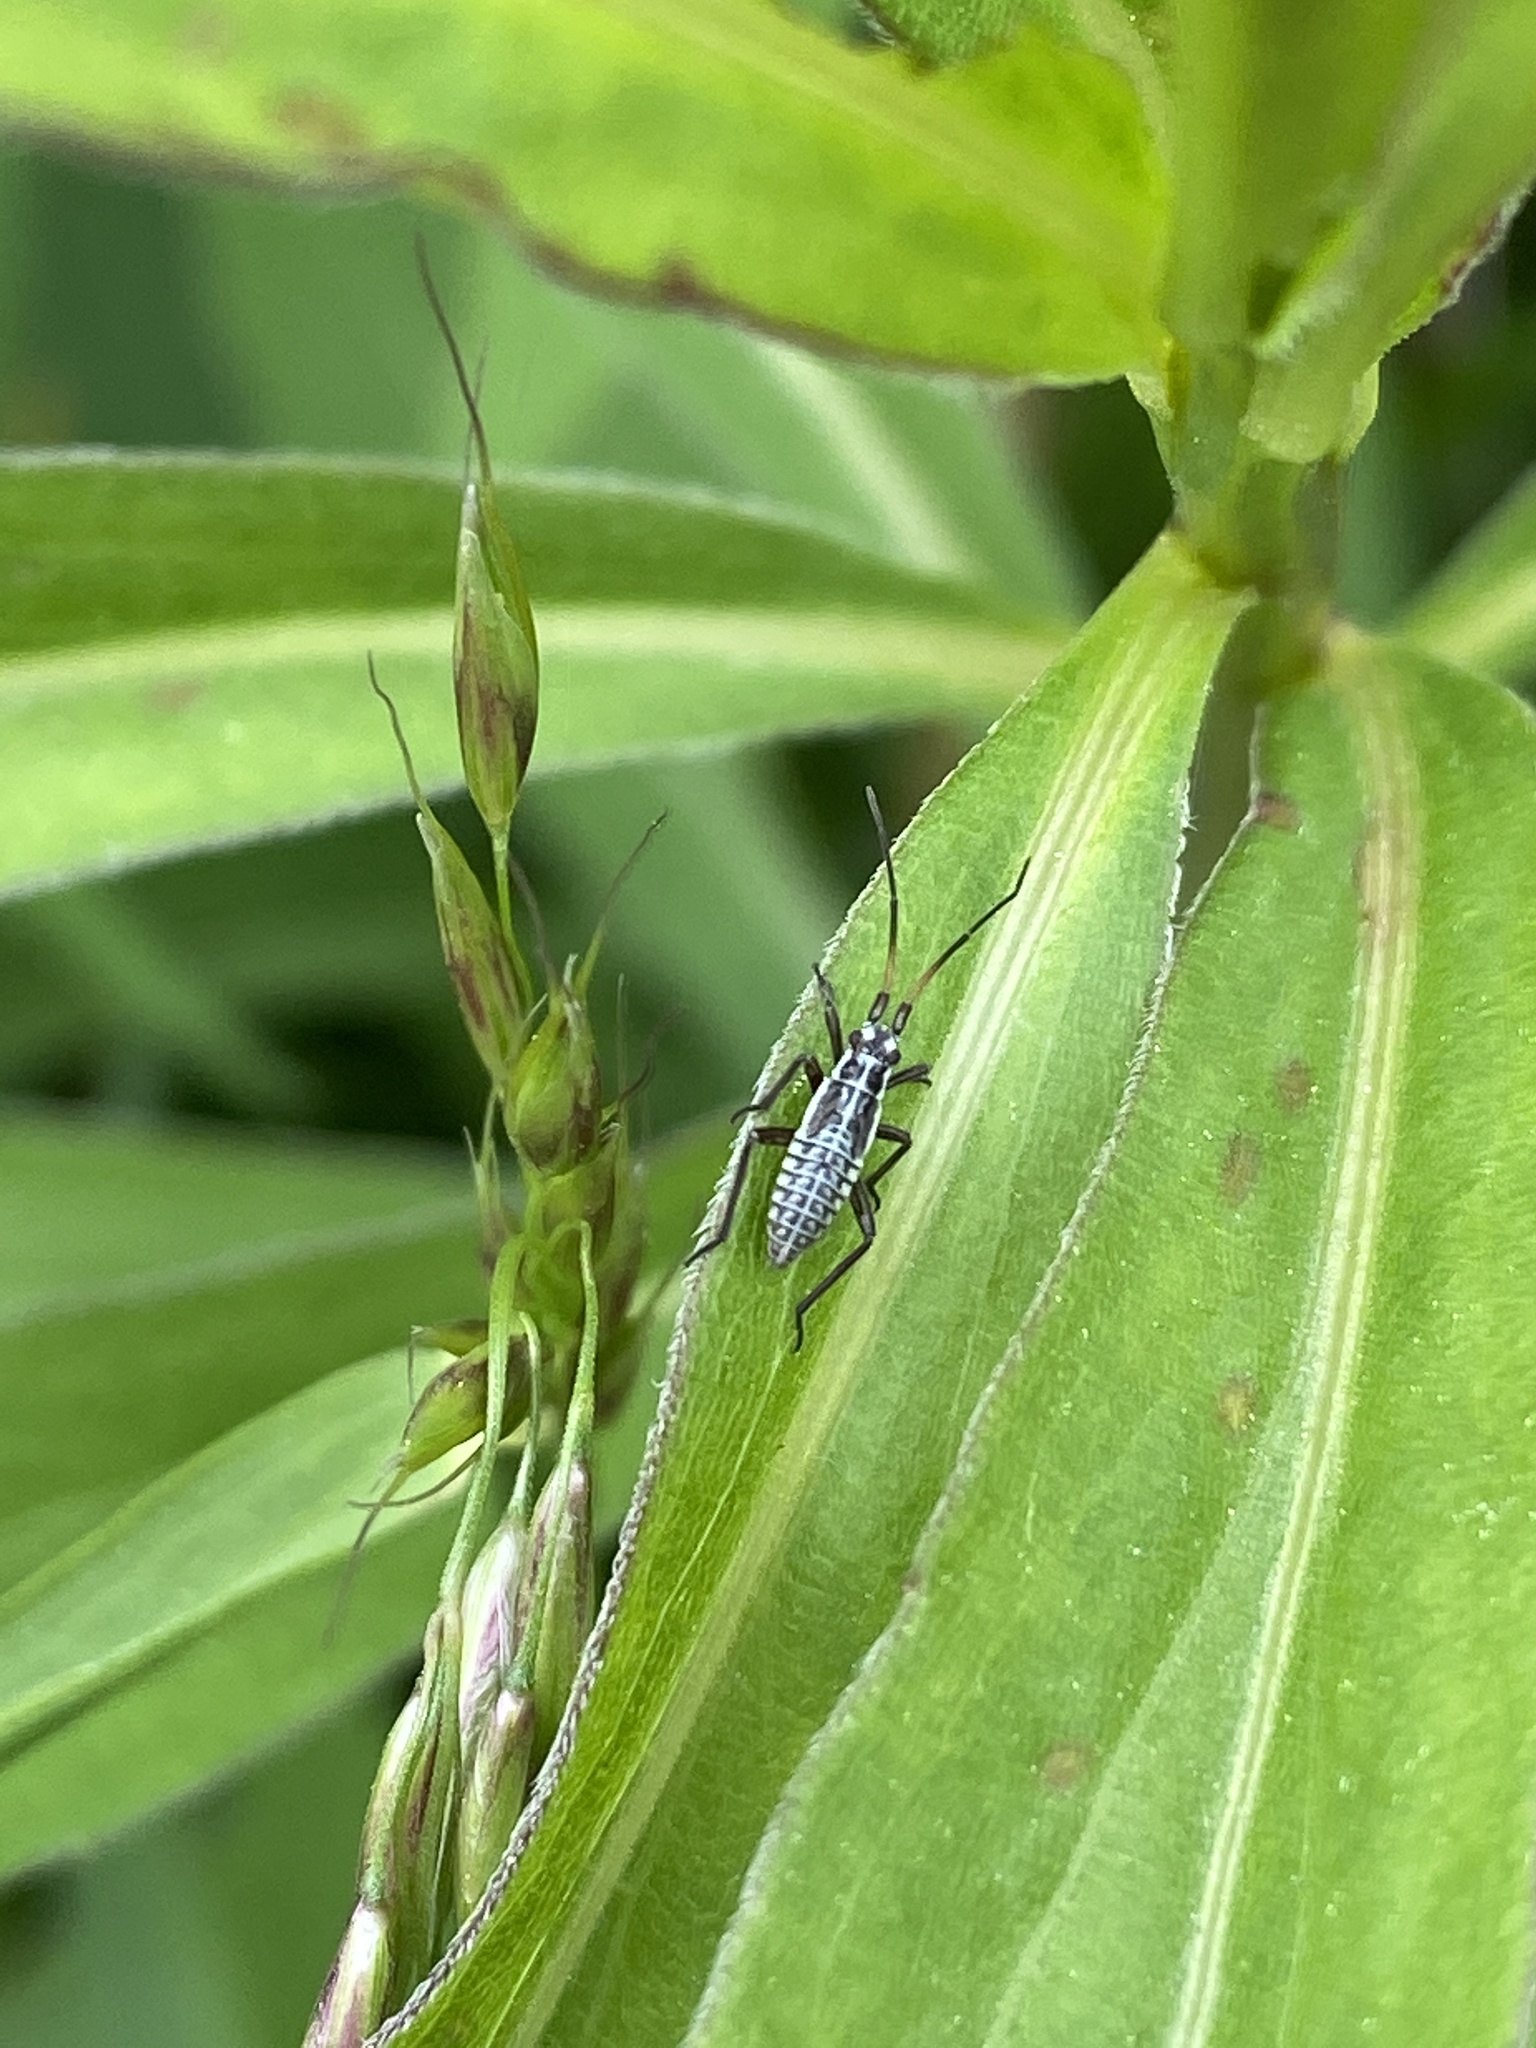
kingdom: Animalia
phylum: Arthropoda
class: Insecta
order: Hemiptera
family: Miridae
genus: Leptopterna
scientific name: Leptopterna dolabrata
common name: Meadow plant bug
